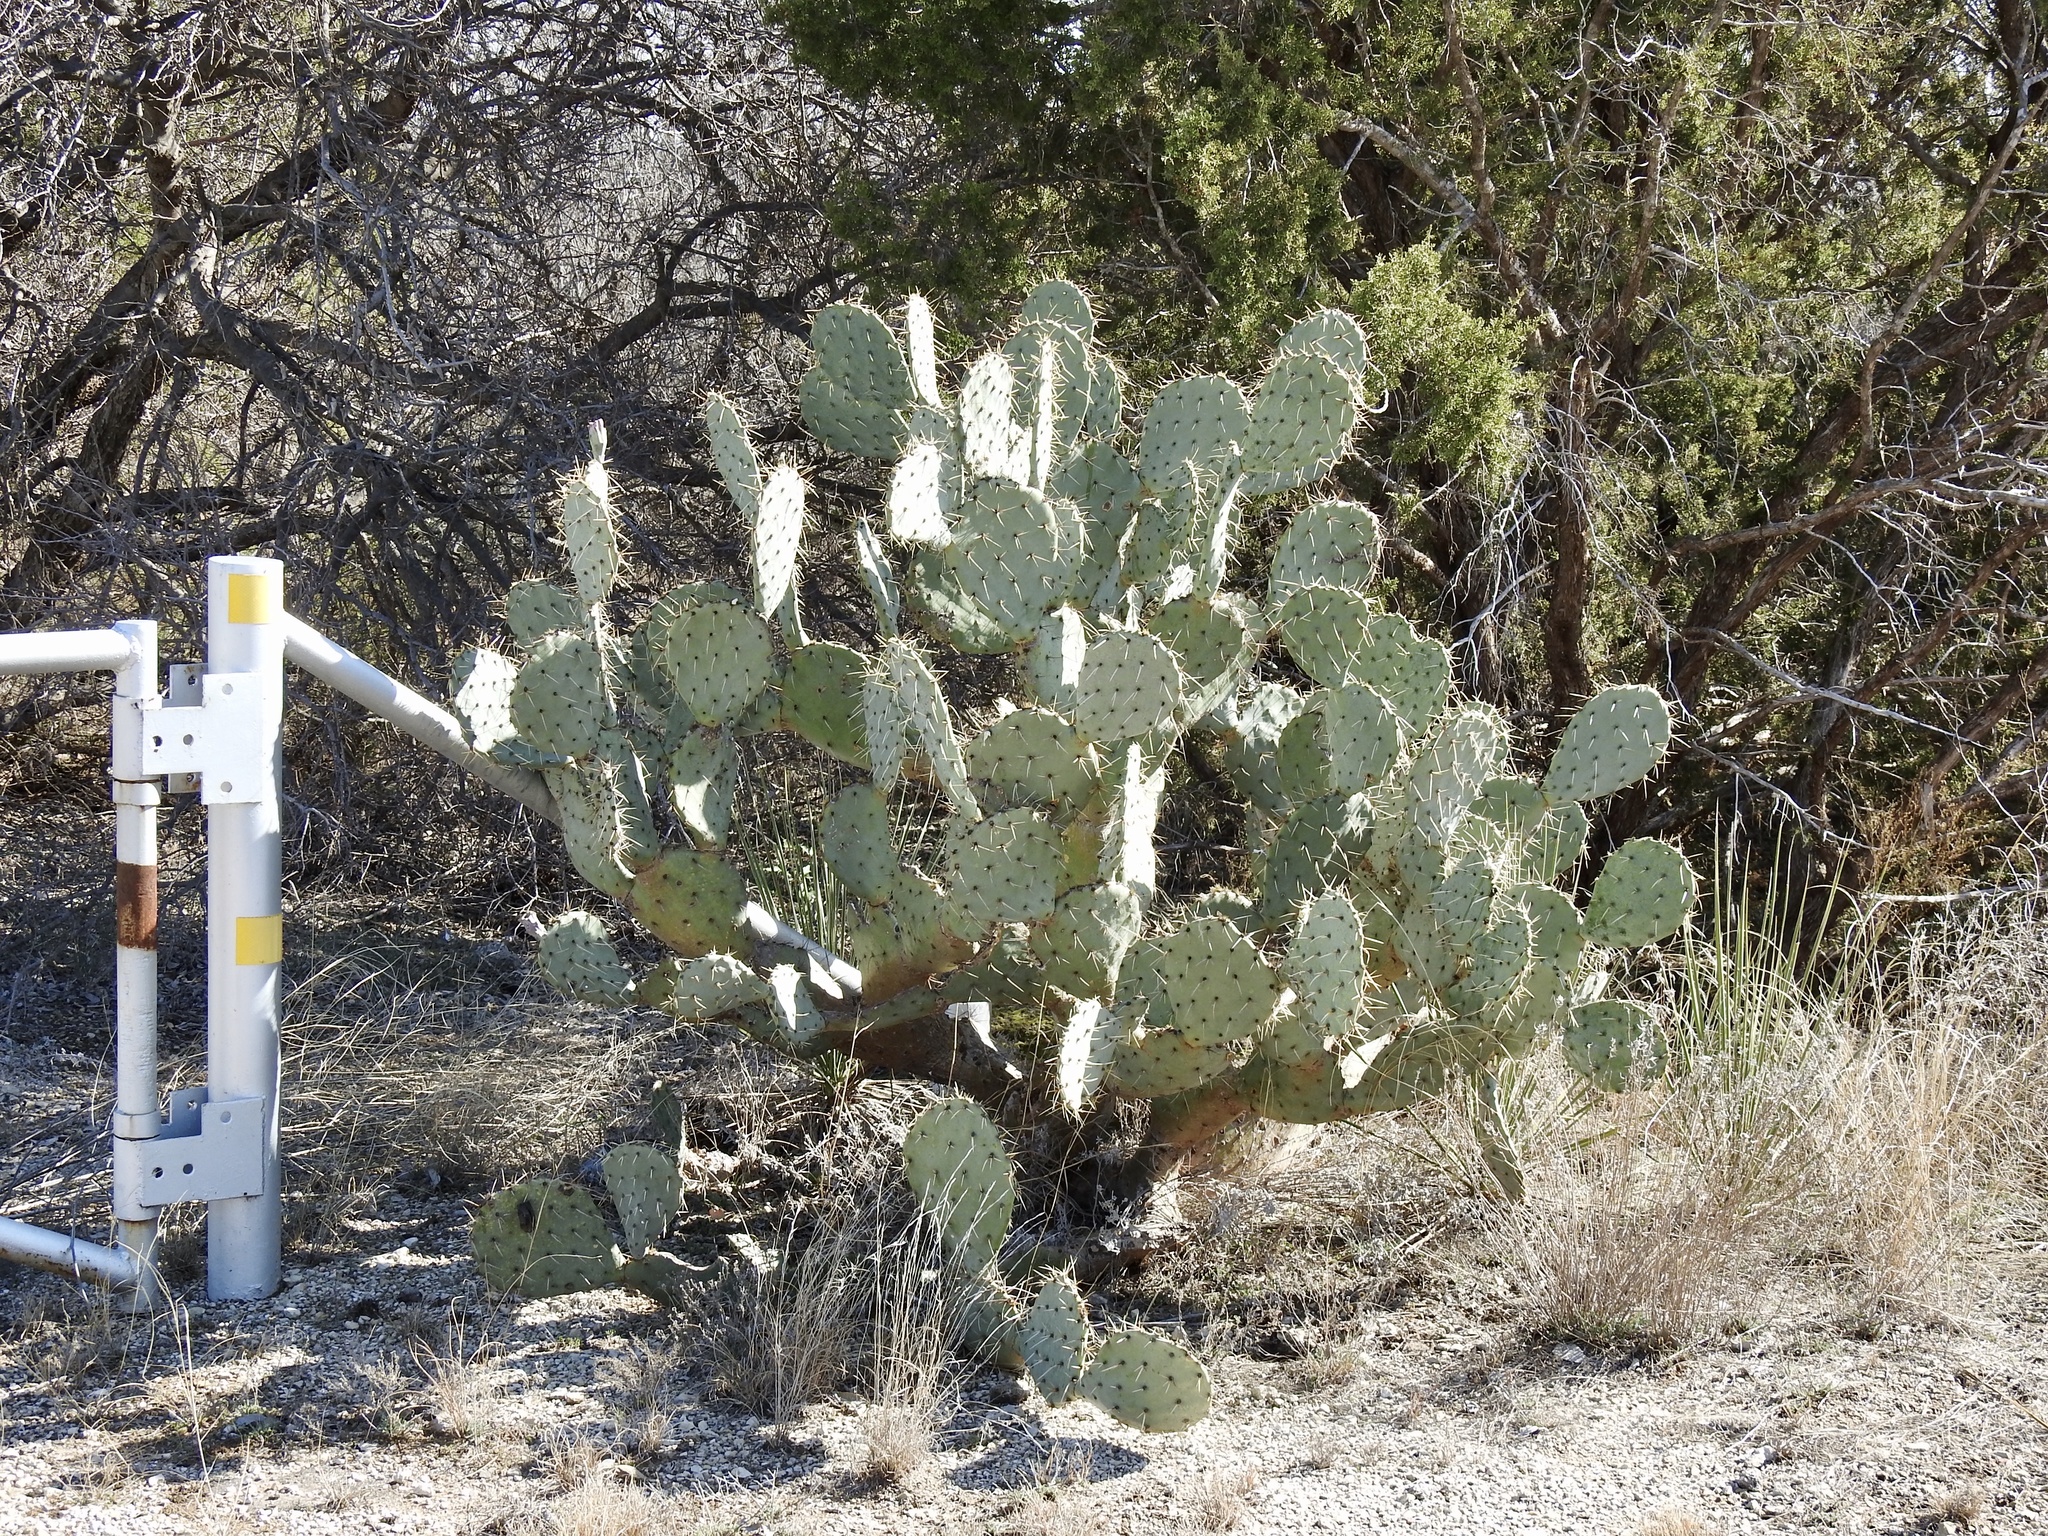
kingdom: Plantae
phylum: Tracheophyta
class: Magnoliopsida
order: Caryophyllales
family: Cactaceae
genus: Opuntia
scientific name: Opuntia engelmannii
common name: Cactus-apple
